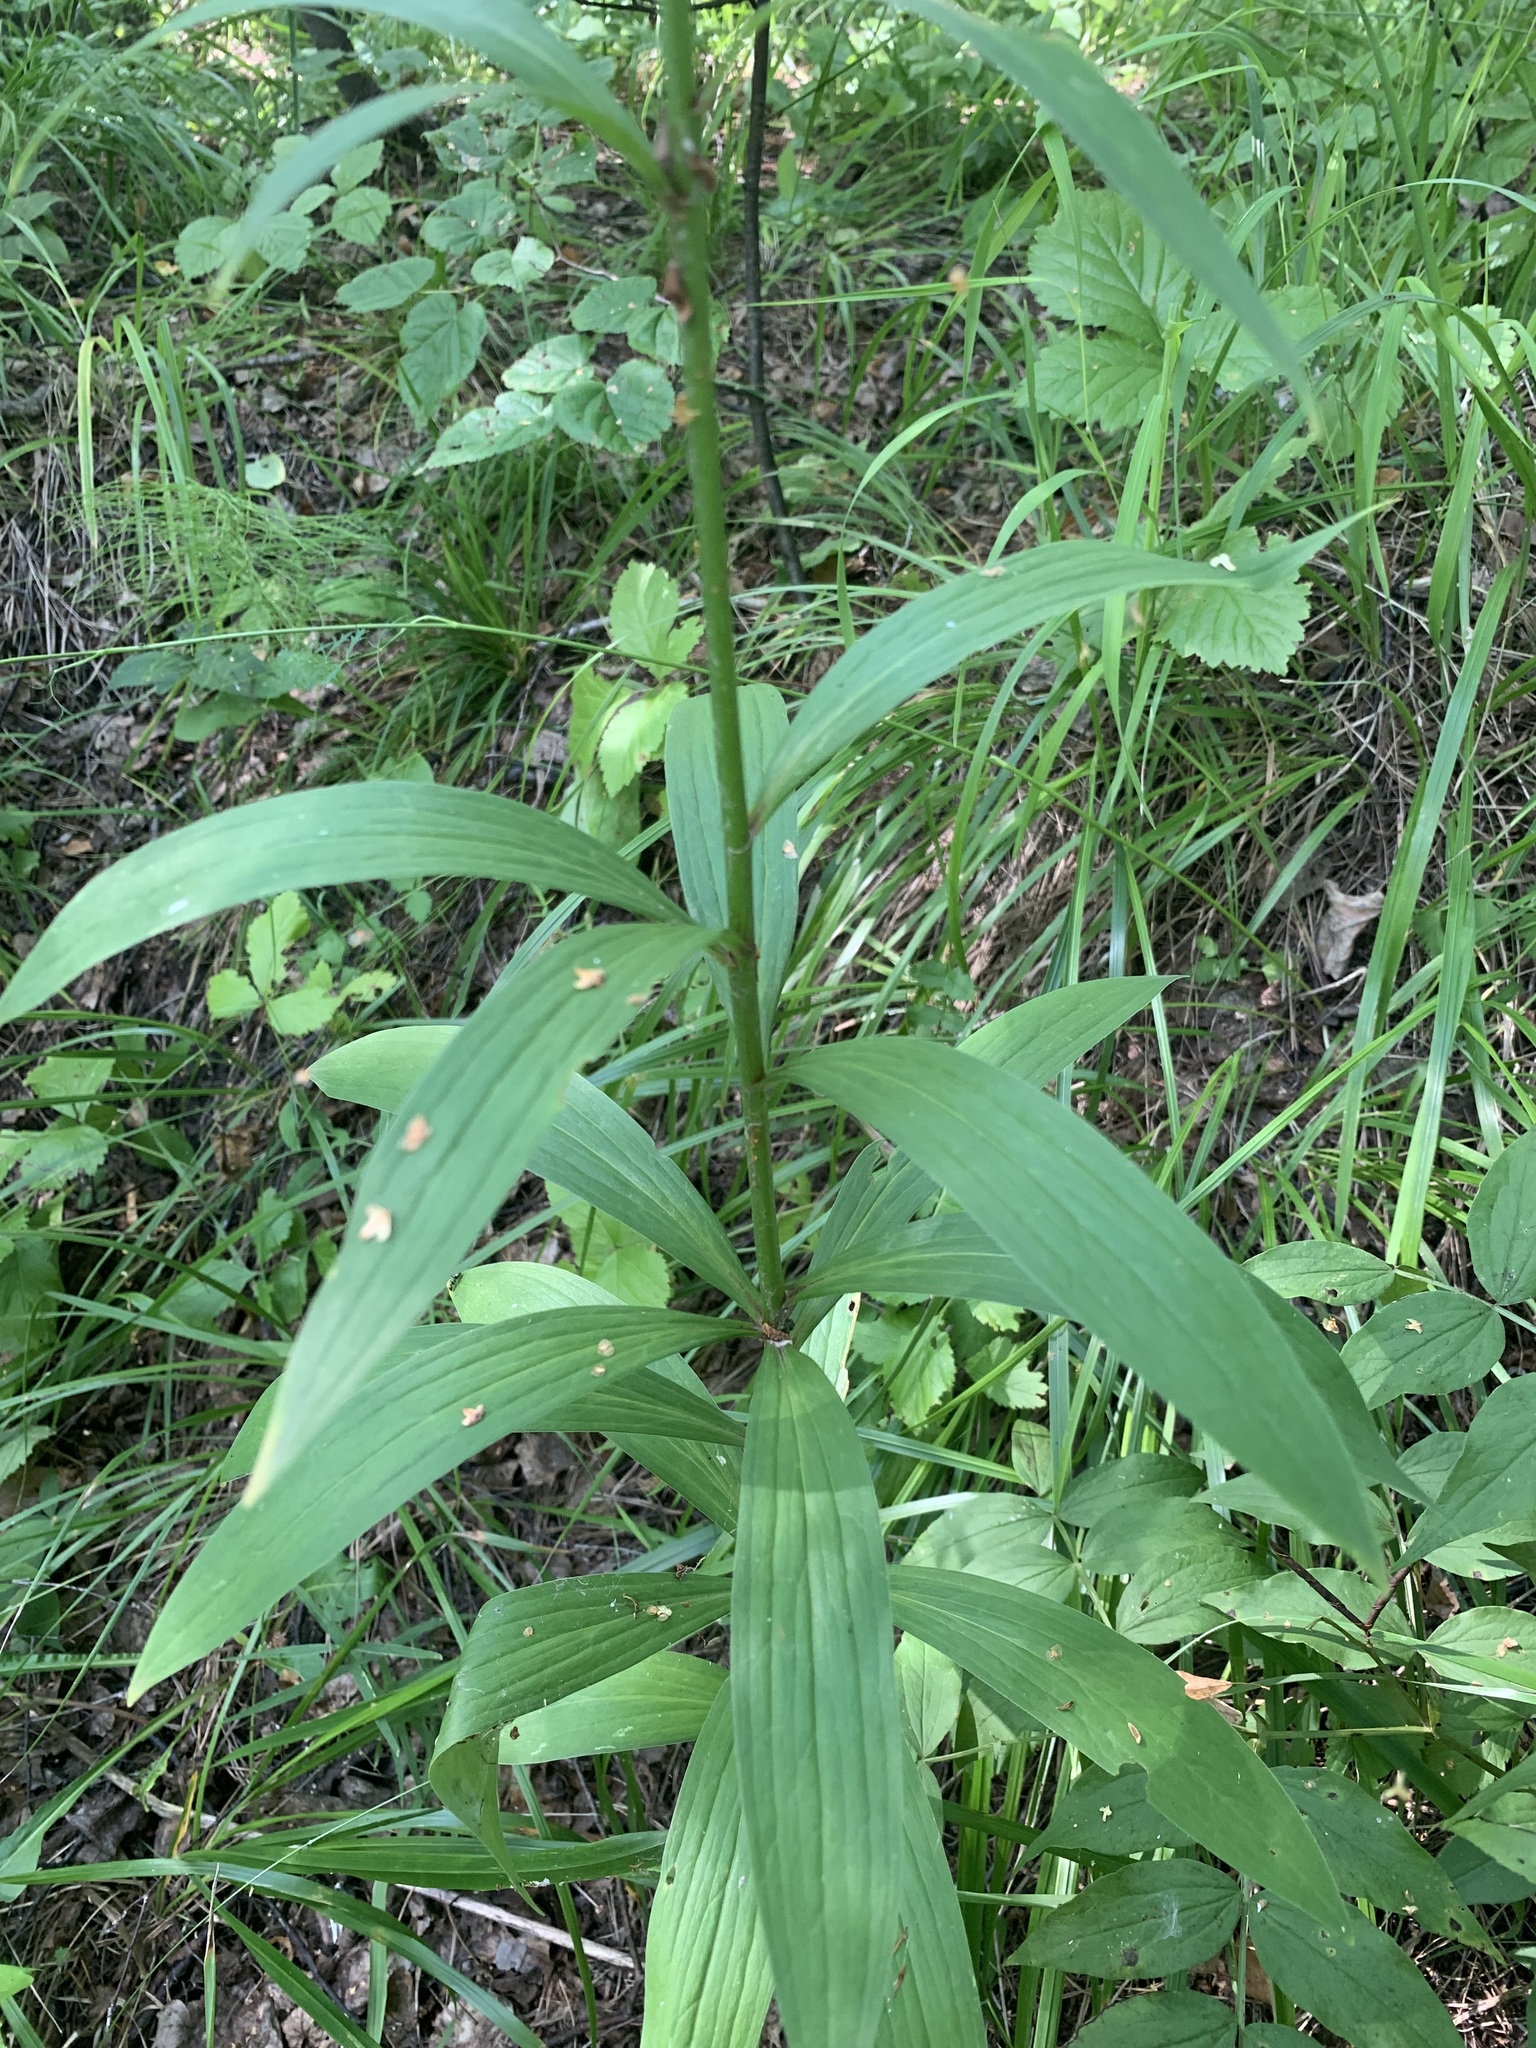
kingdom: Plantae
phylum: Tracheophyta
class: Liliopsida
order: Liliales
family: Liliaceae
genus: Lilium
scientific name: Lilium martagon
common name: Martagon lily
